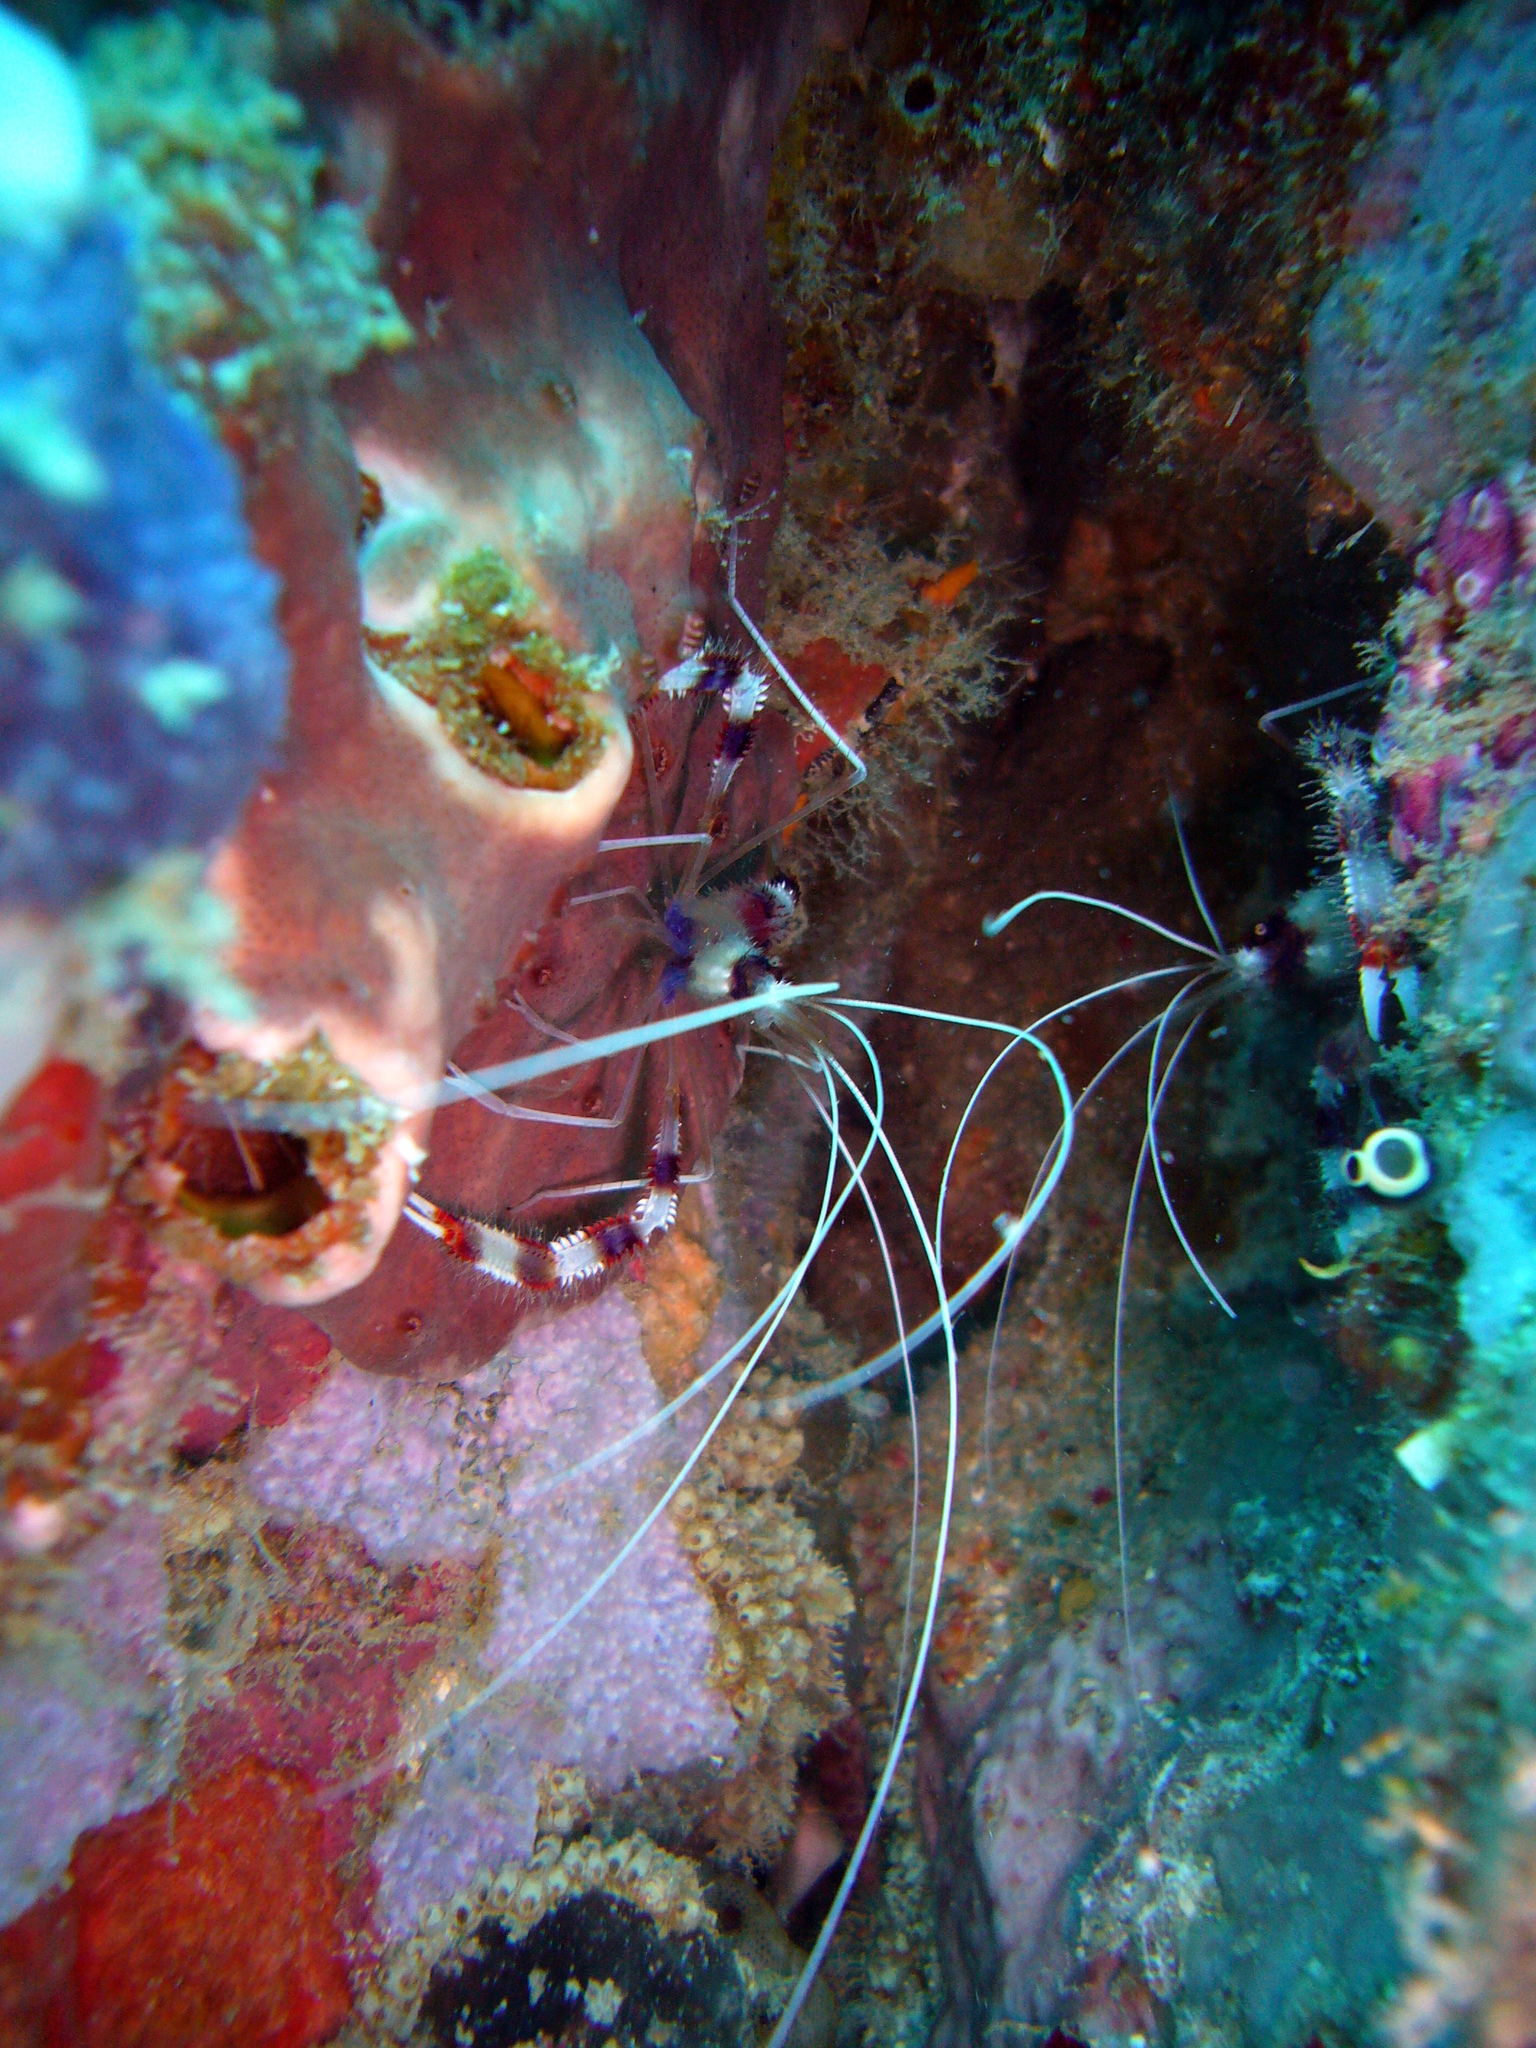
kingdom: Animalia
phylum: Arthropoda
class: Malacostraca
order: Decapoda
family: Stenopodidae
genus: Stenopus
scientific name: Stenopus hispidus
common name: Banded coral shrimp
